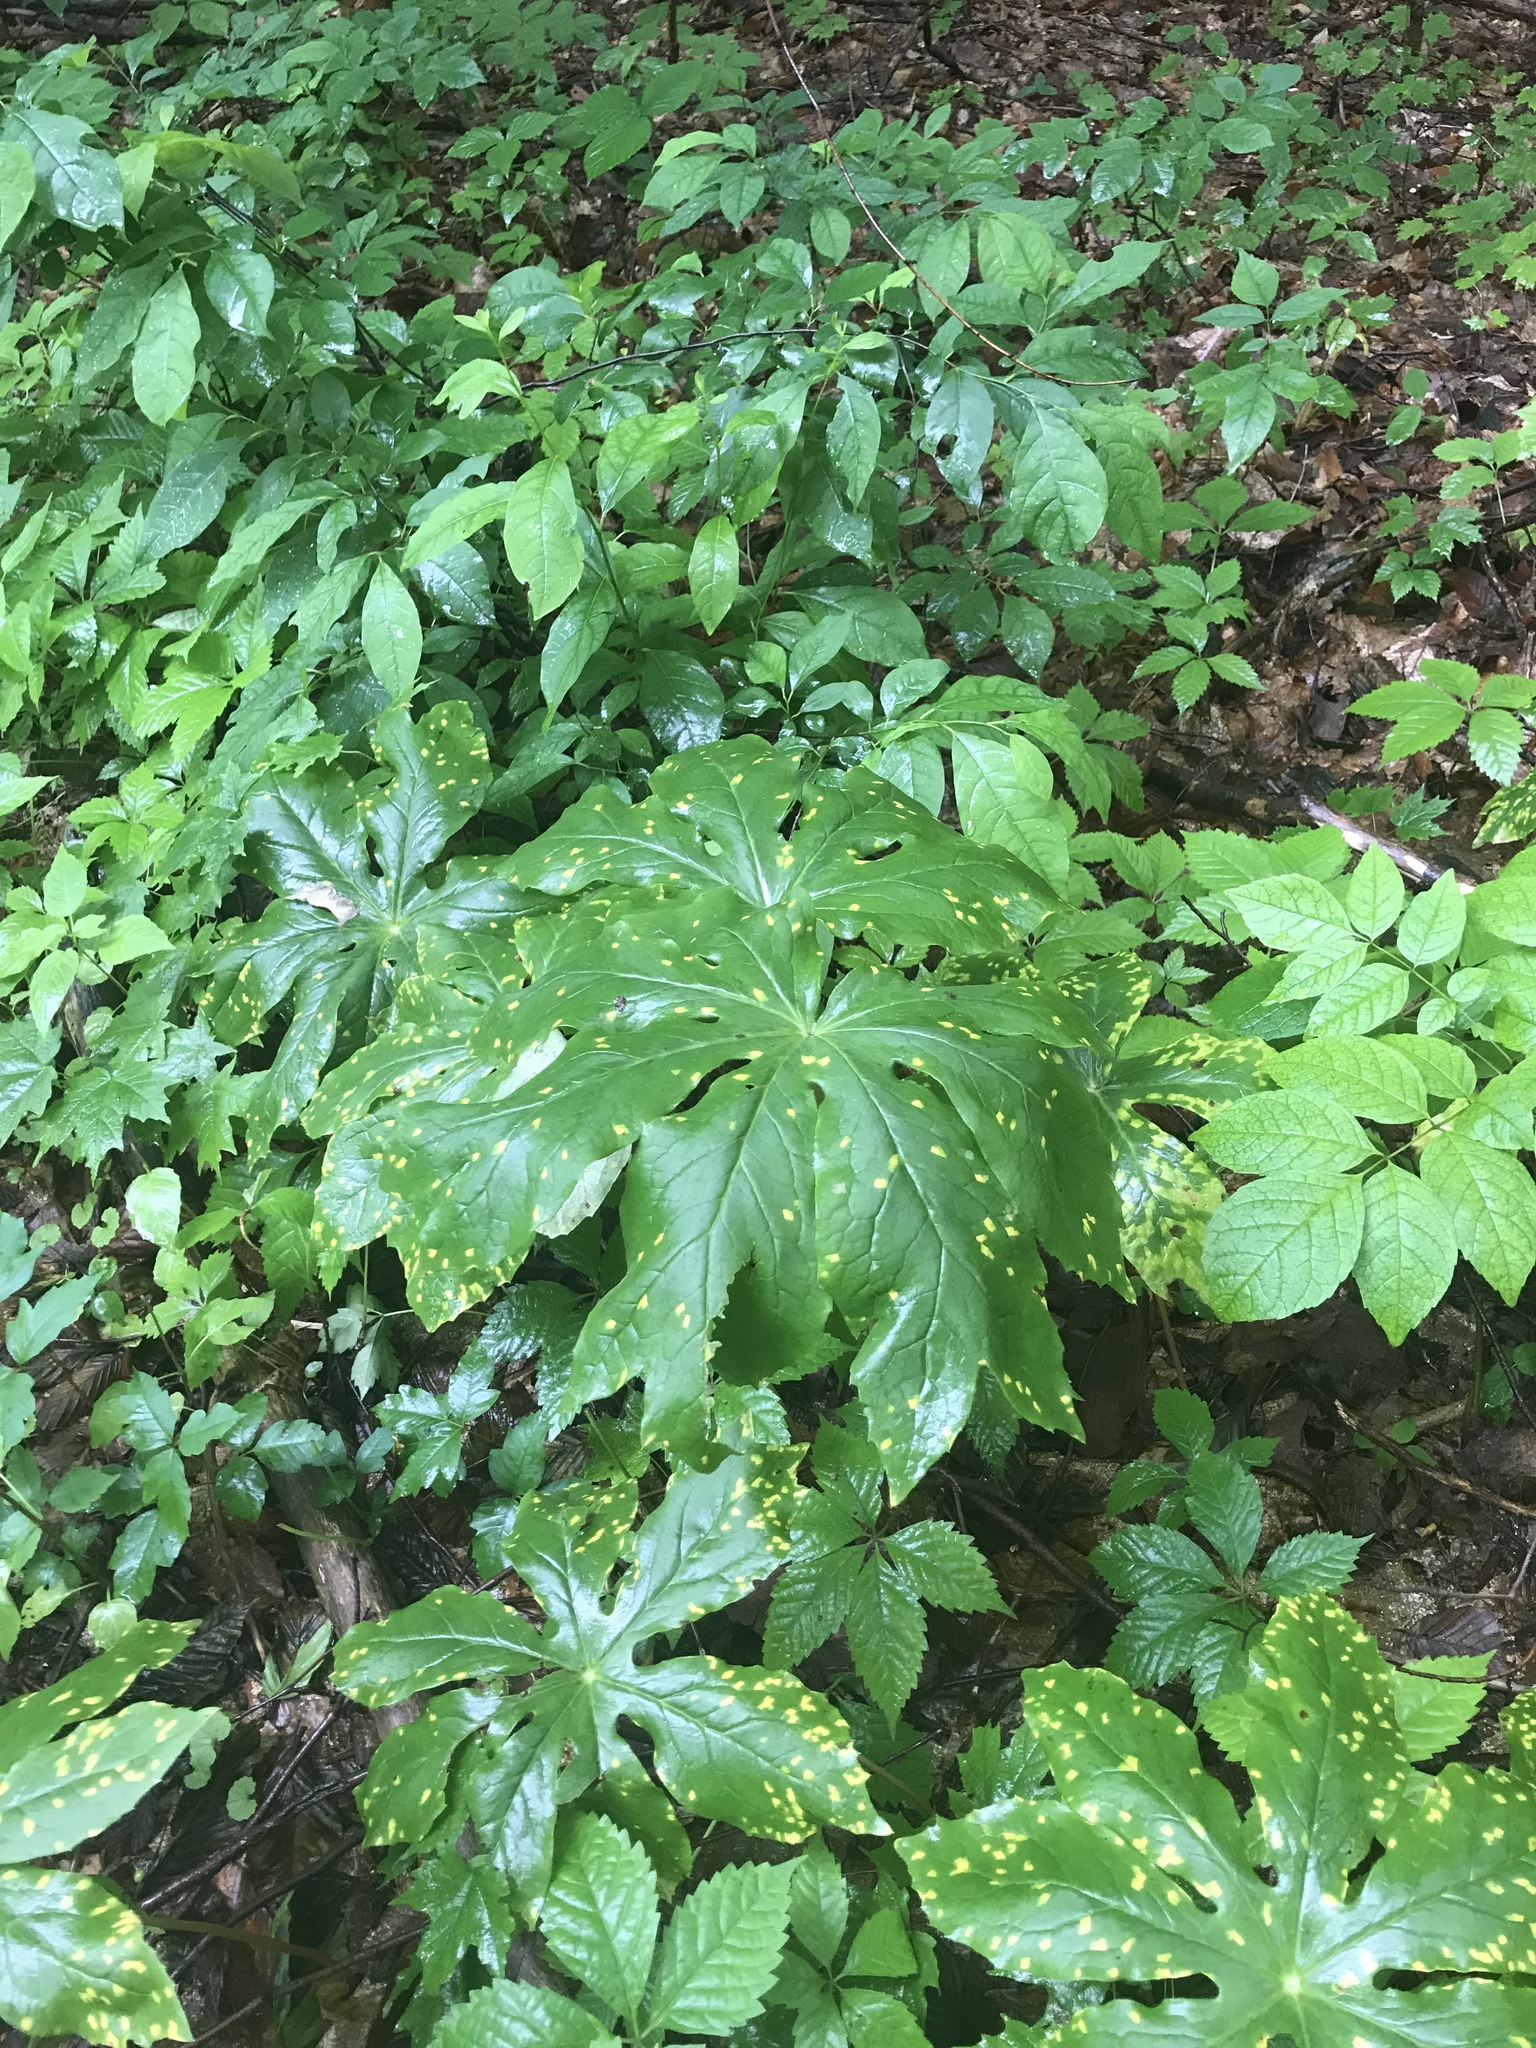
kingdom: Fungi
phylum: Basidiomycota
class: Pucciniomycetes
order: Pucciniales
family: Pucciniaceae
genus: Puccinia
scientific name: Puccinia podophylli
